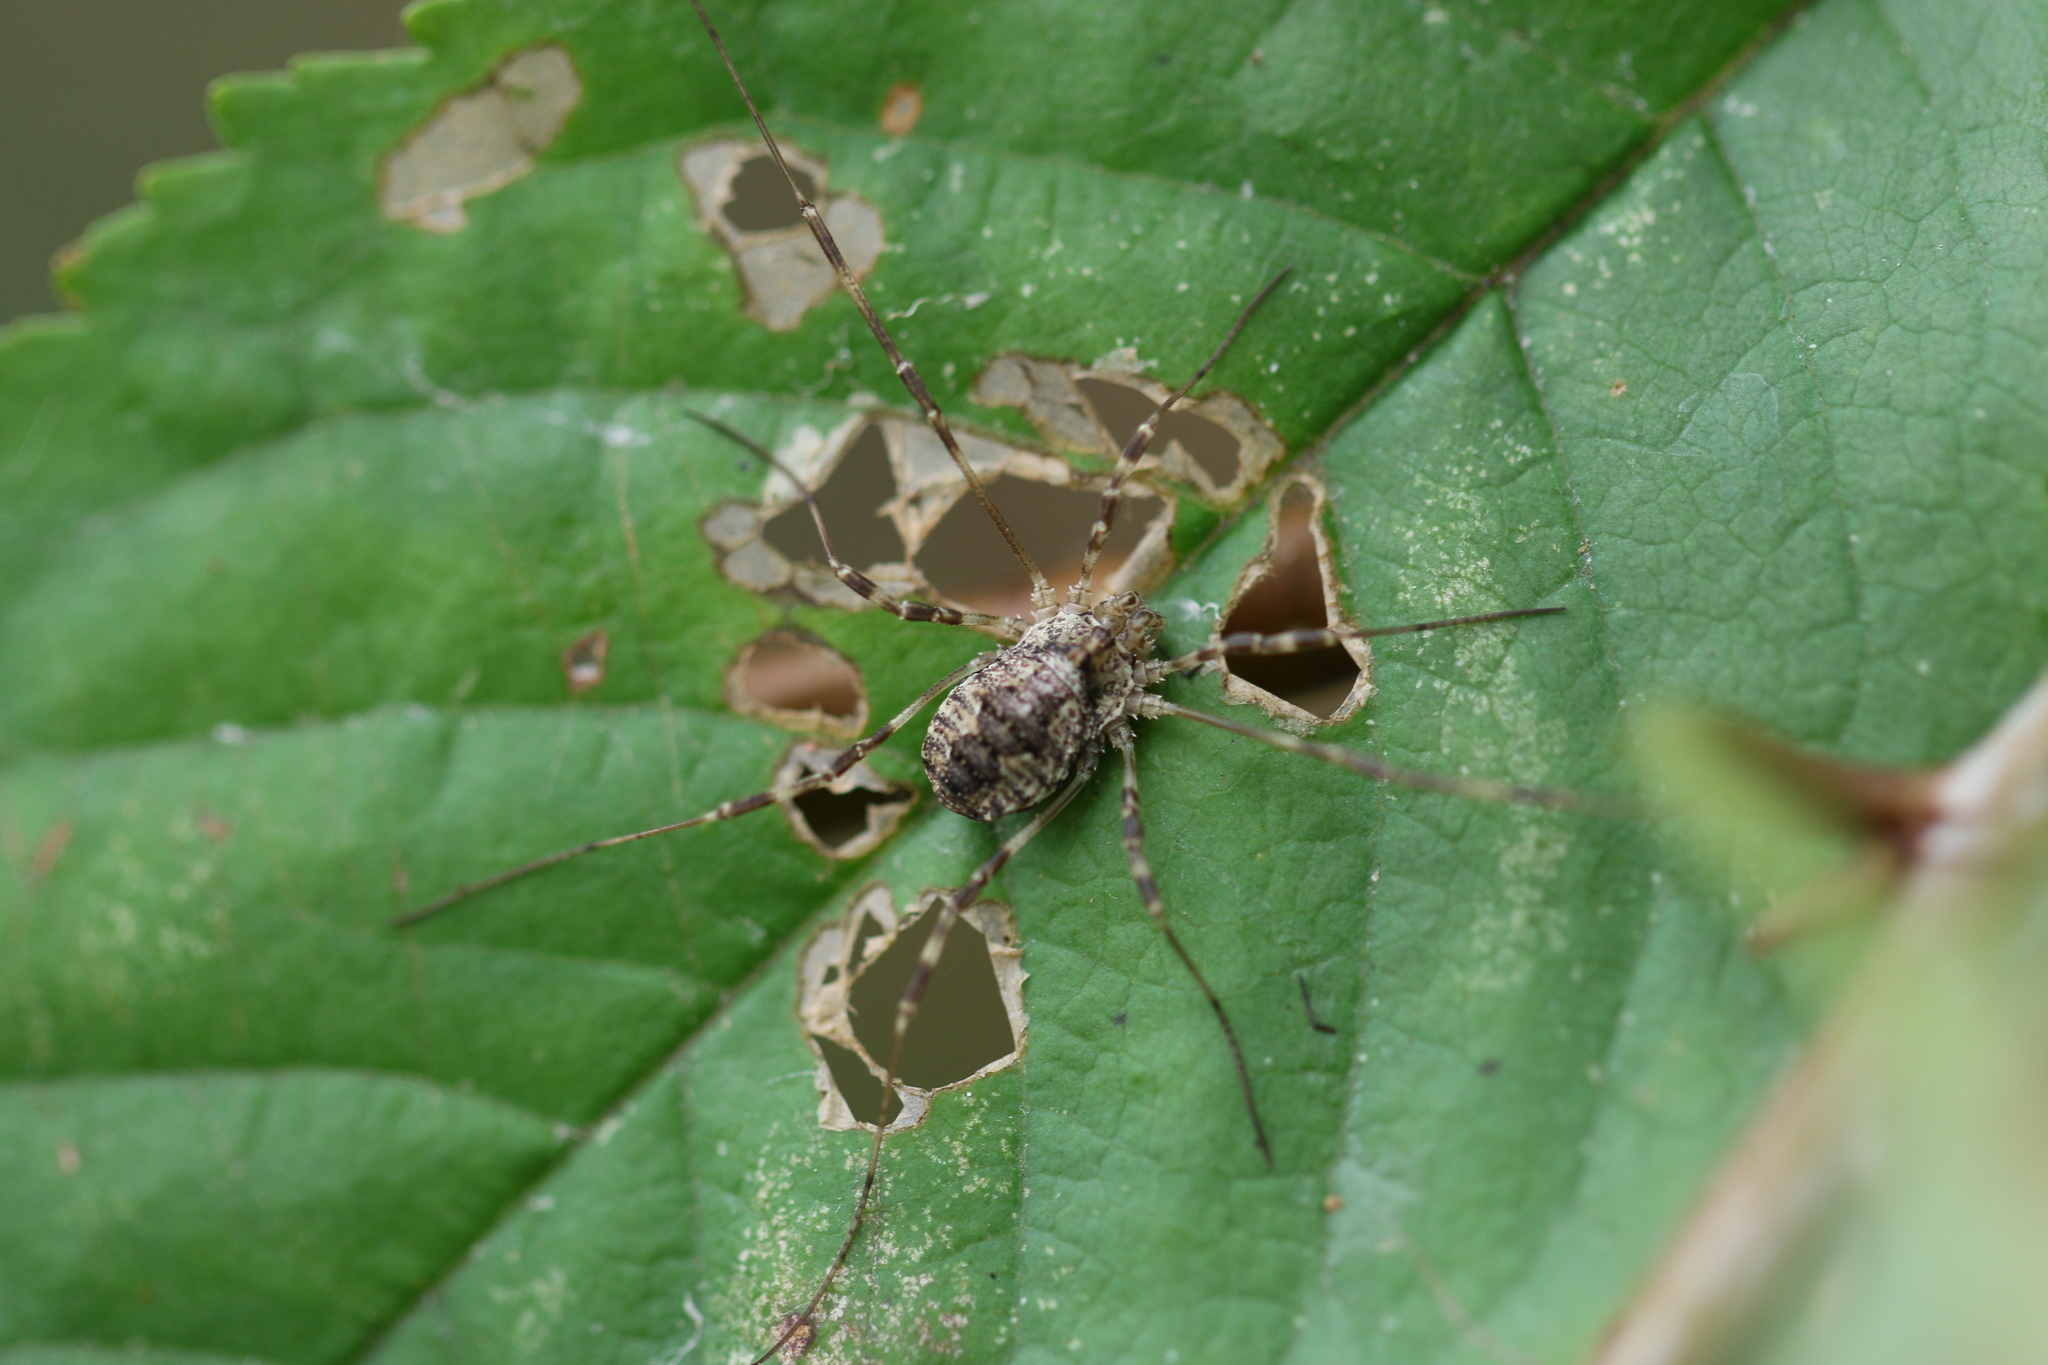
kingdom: Animalia
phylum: Arthropoda
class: Arachnida
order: Opiliones
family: Phalangiidae
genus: Odiellus
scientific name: Odiellus pictus
